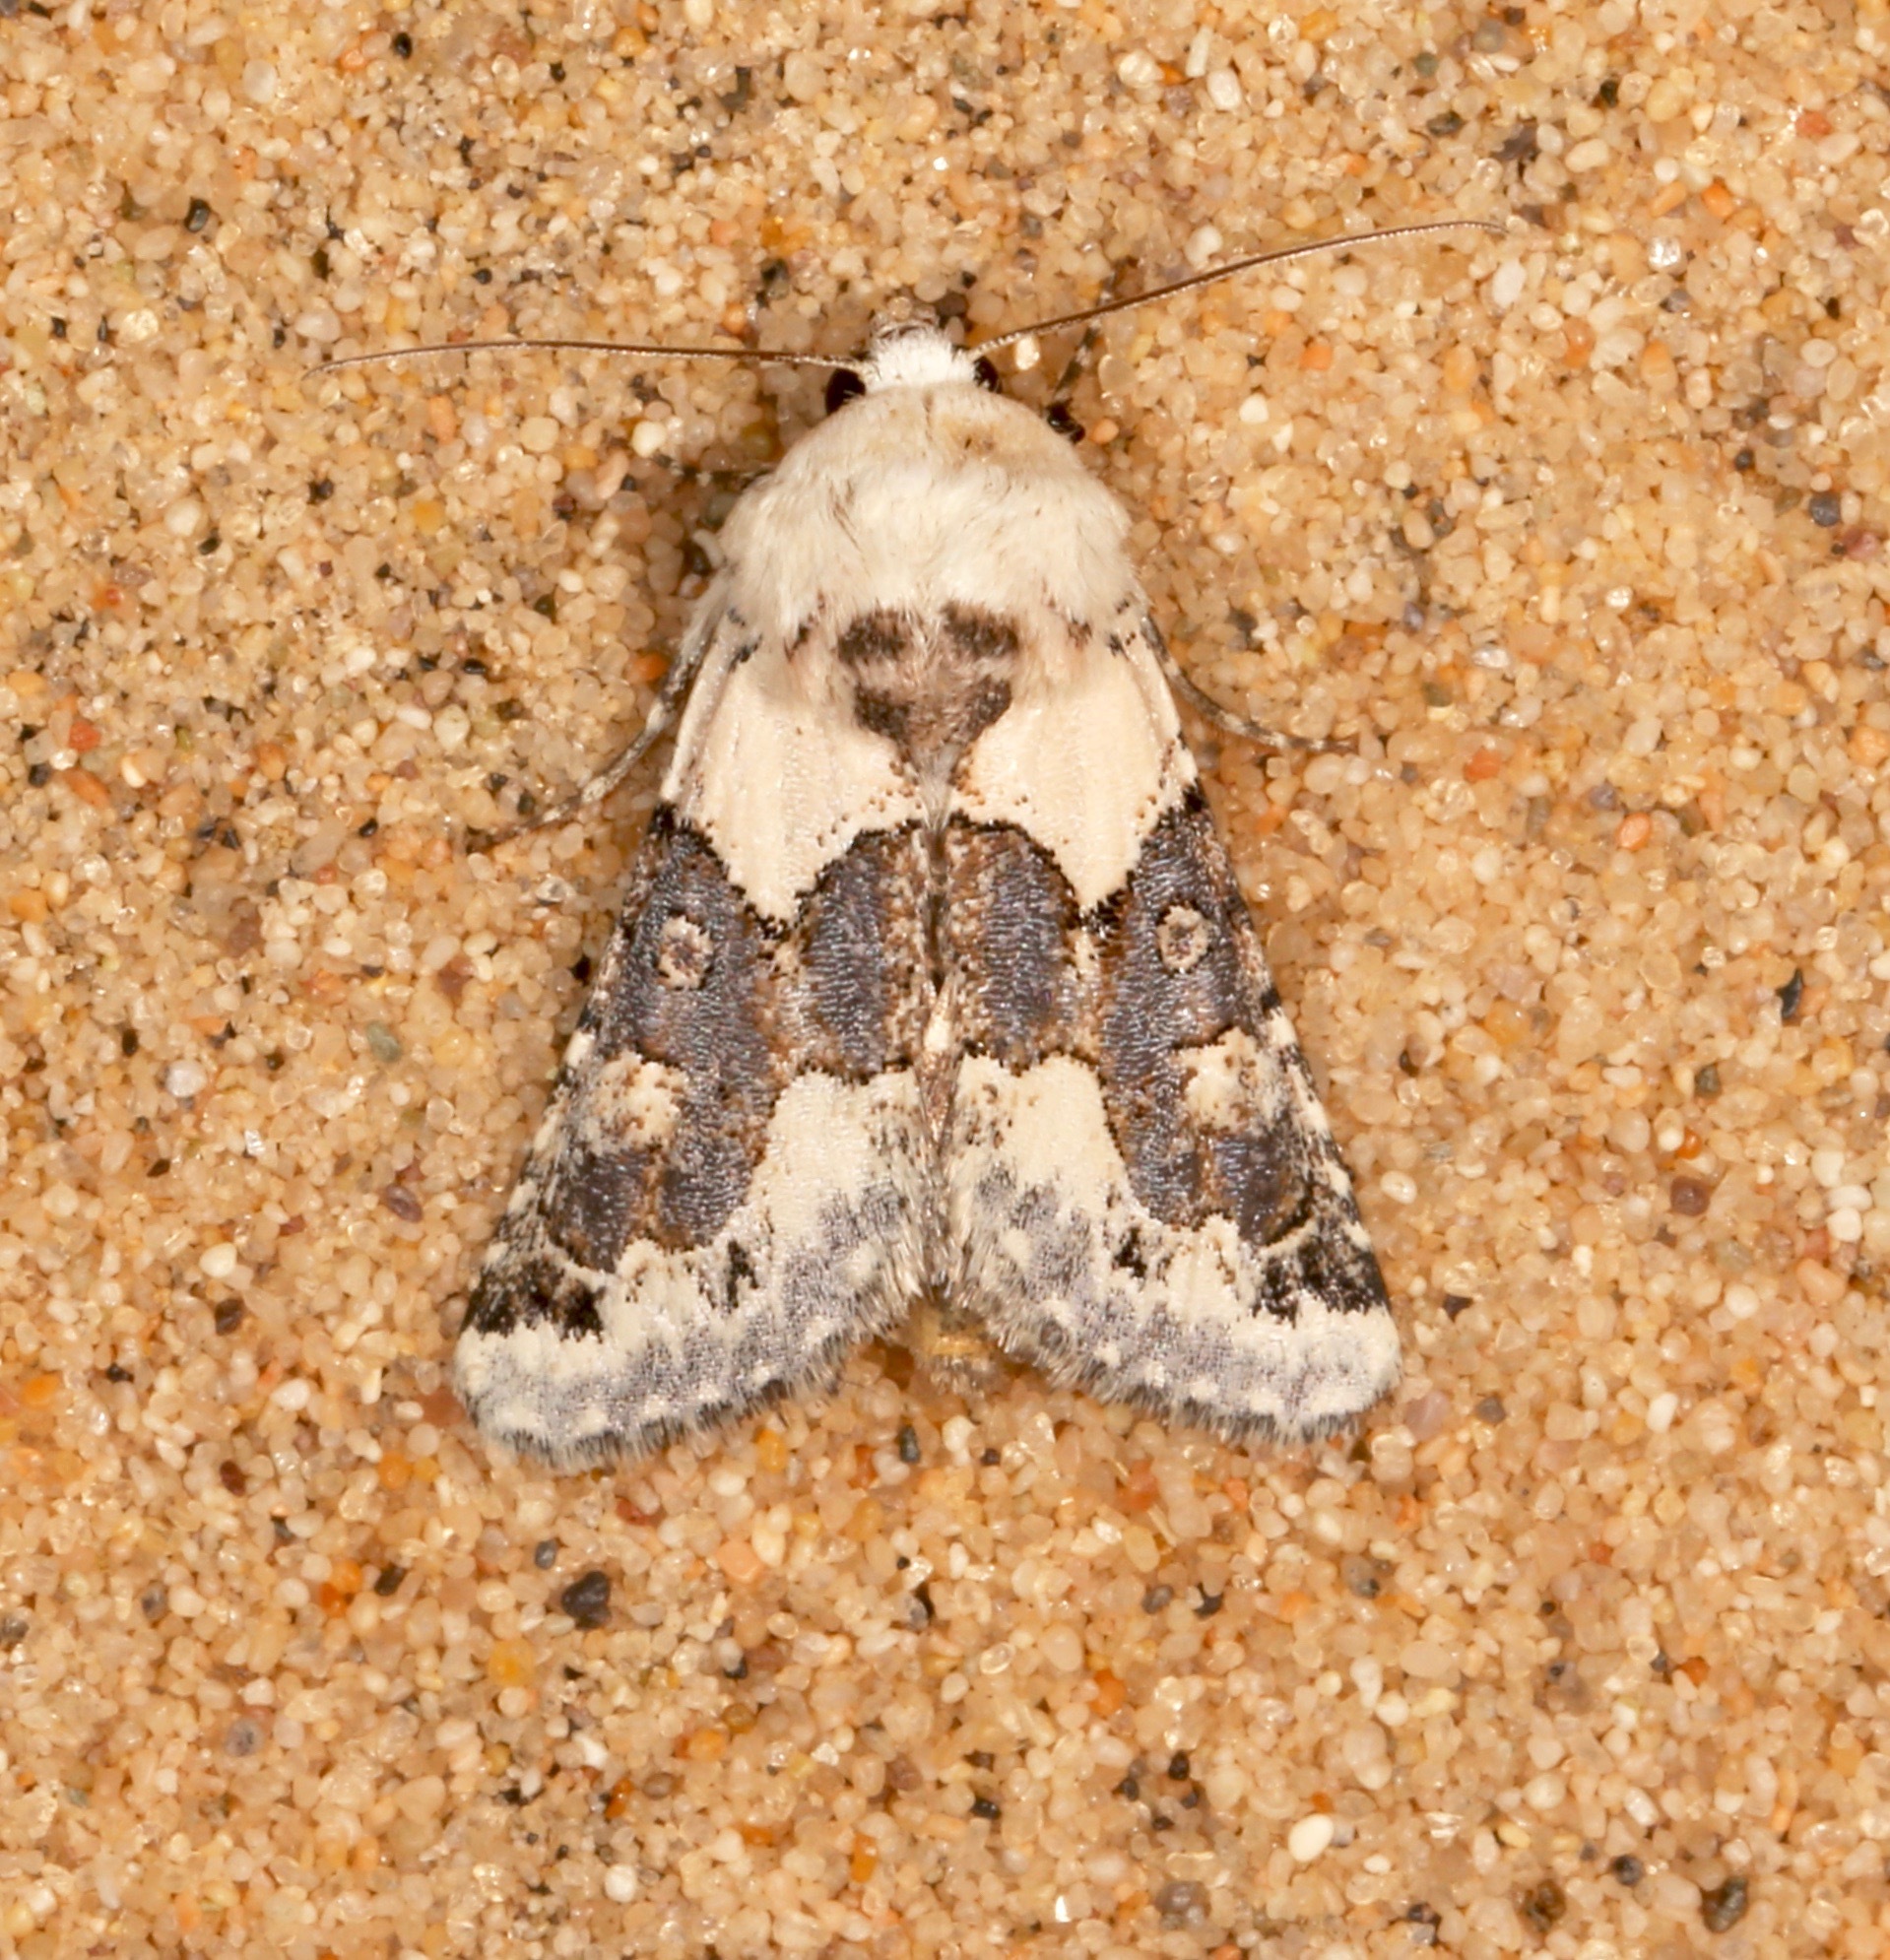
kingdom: Animalia
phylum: Arthropoda
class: Insecta
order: Lepidoptera
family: Noctuidae
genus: Triocnemis
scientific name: Triocnemis saporis
